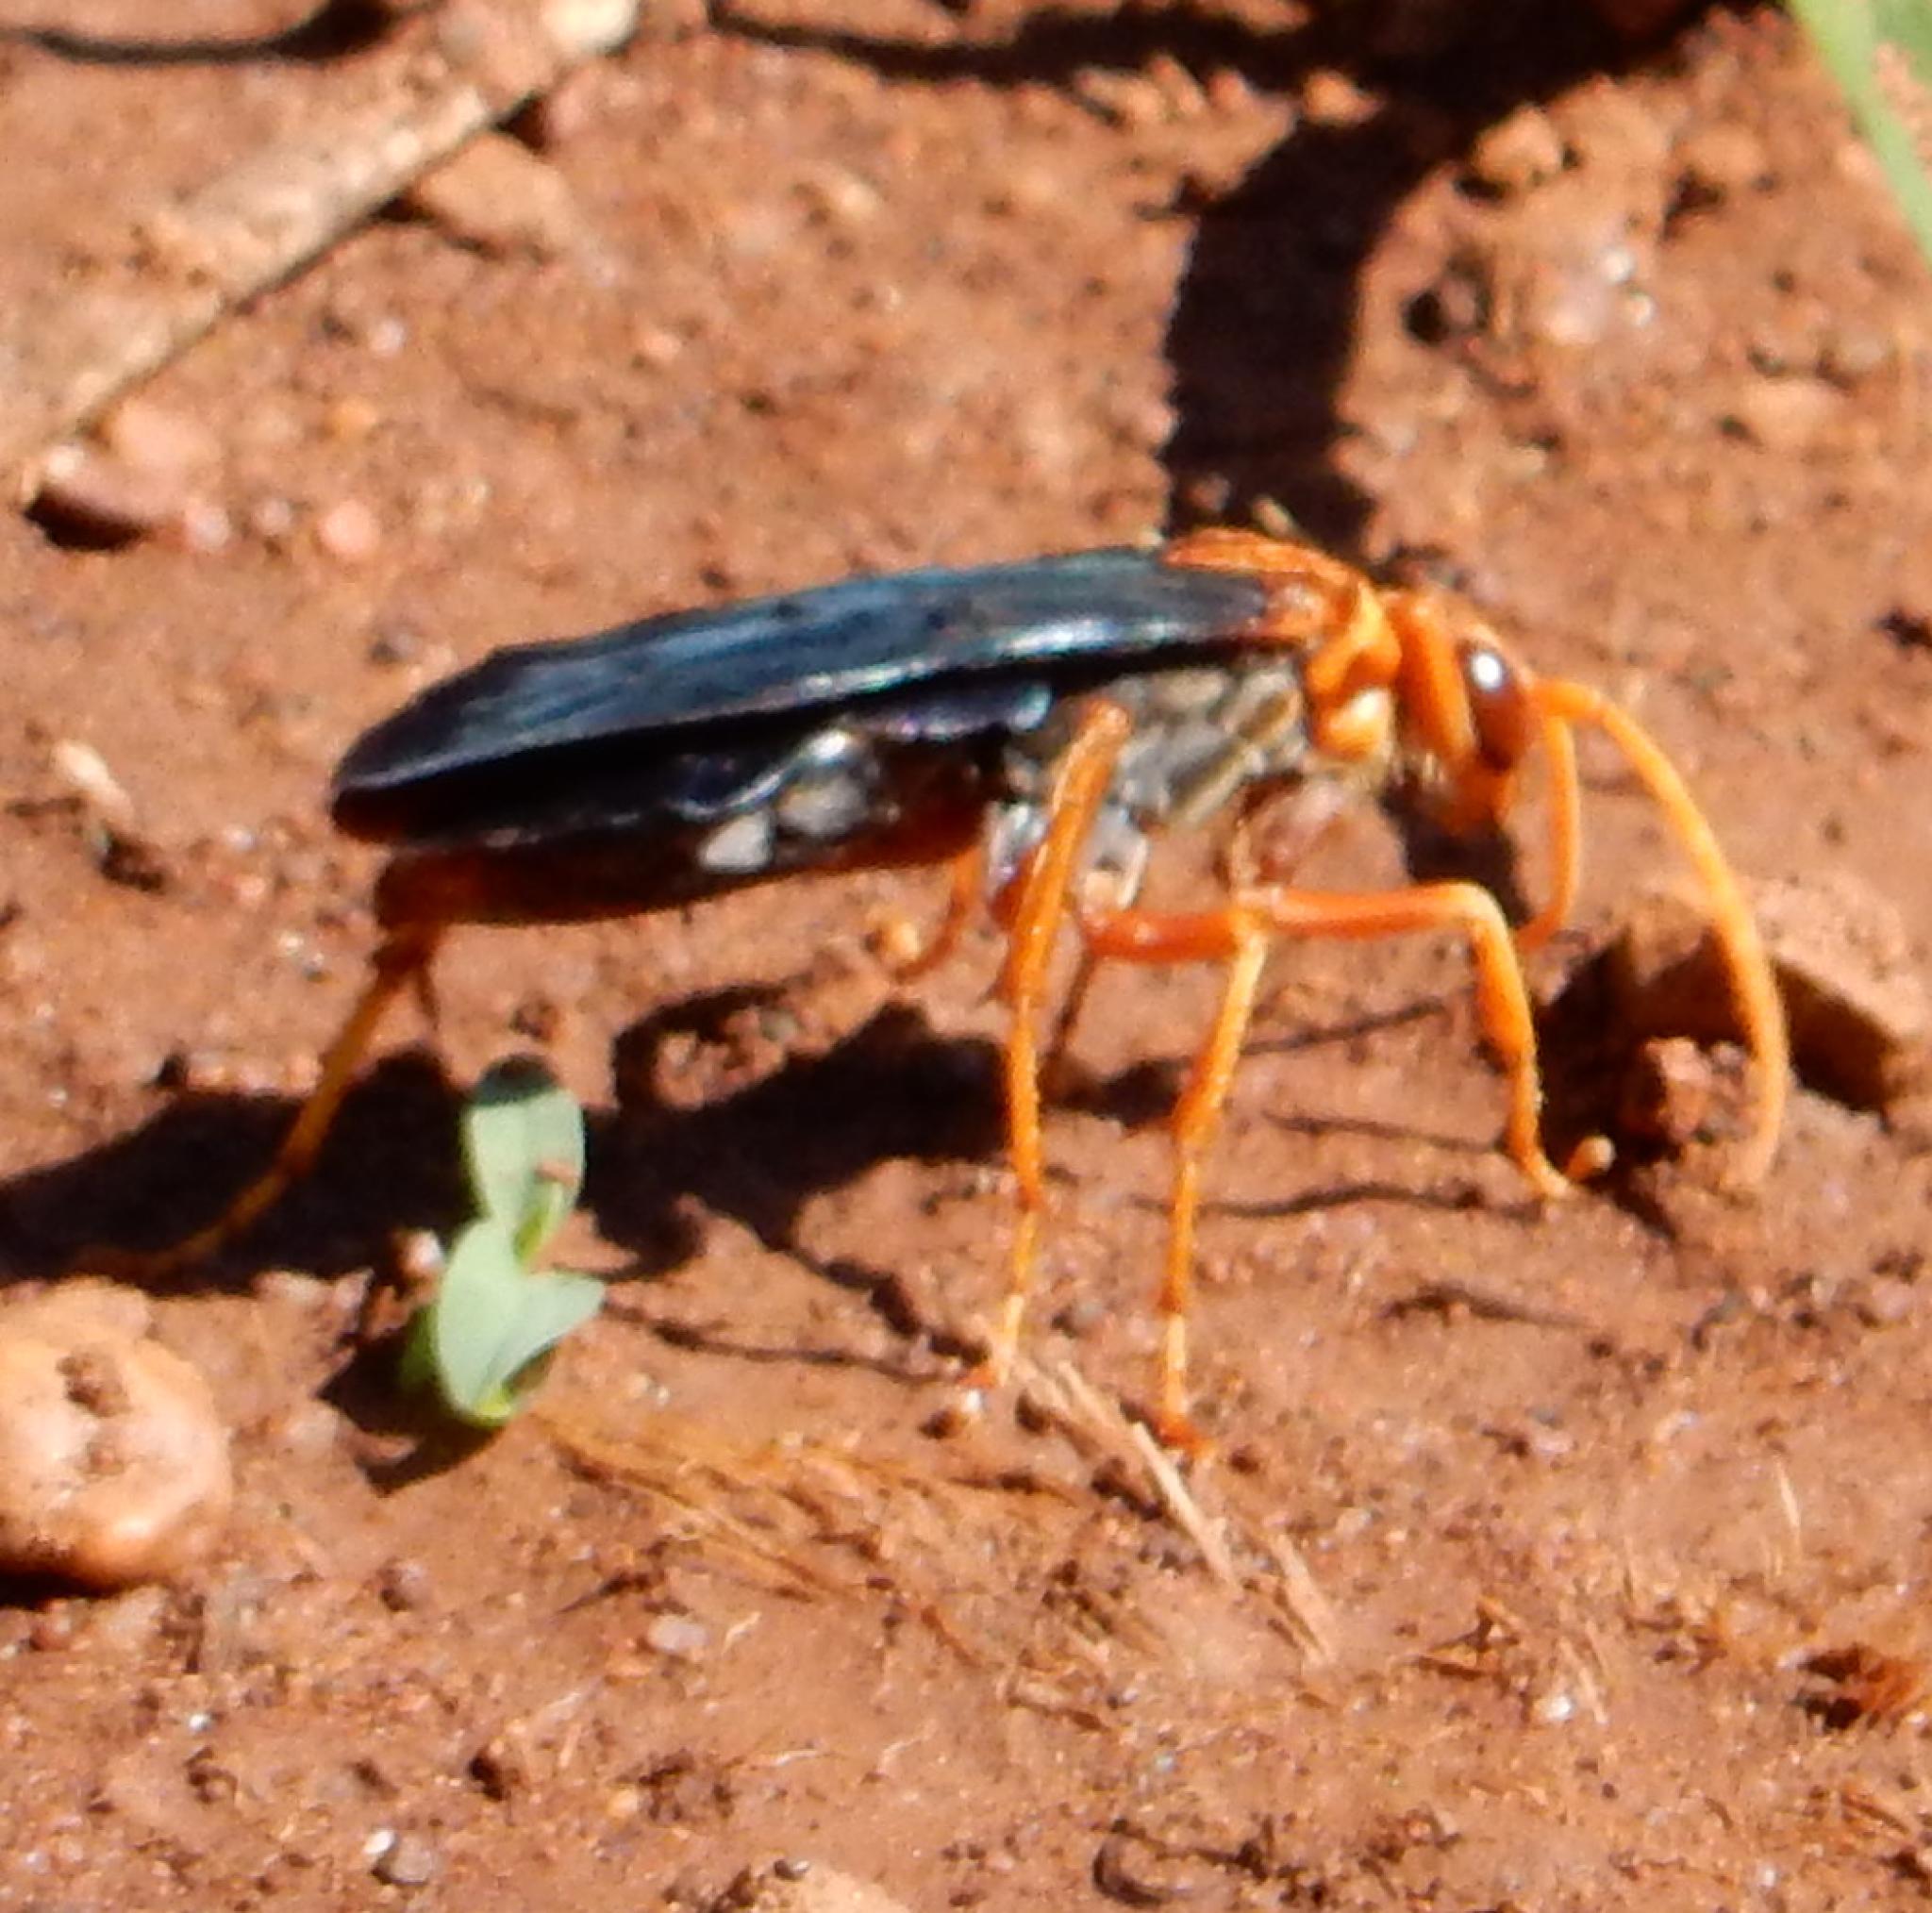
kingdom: Animalia
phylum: Arthropoda
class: Insecta
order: Hymenoptera
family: Pompilidae
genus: Hemipepsis
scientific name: Hemipepsis tamisieri
